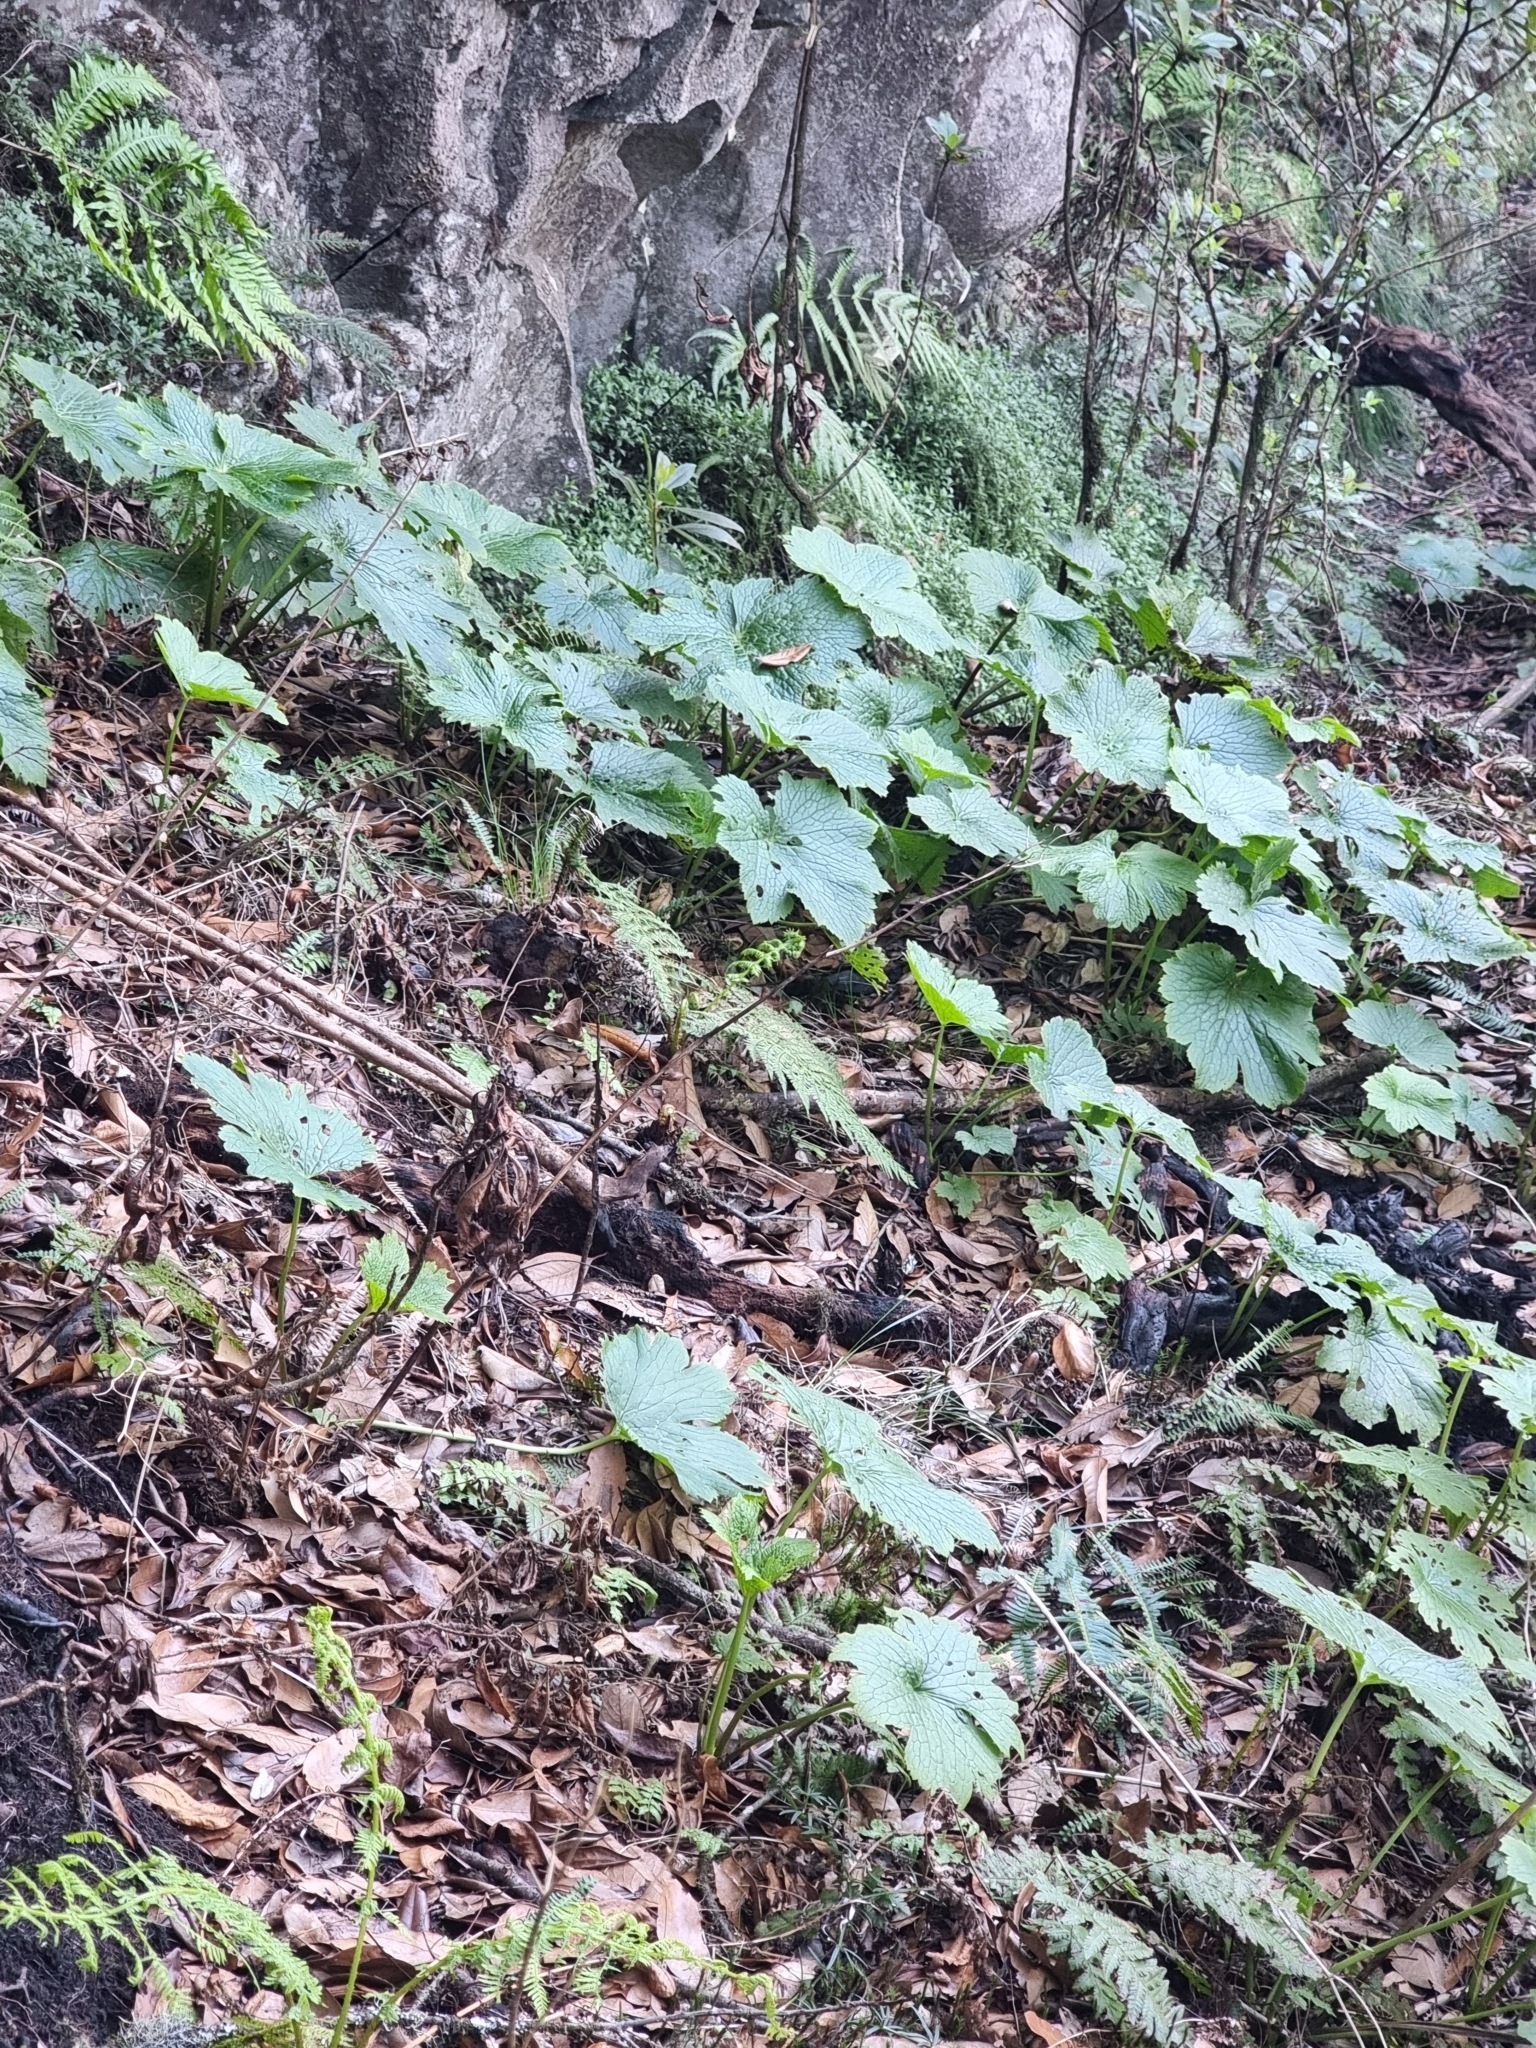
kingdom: Plantae
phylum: Tracheophyta
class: Magnoliopsida
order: Ranunculales
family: Ranunculaceae
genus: Ranunculus
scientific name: Ranunculus cortusifolius
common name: Azores buttercup
